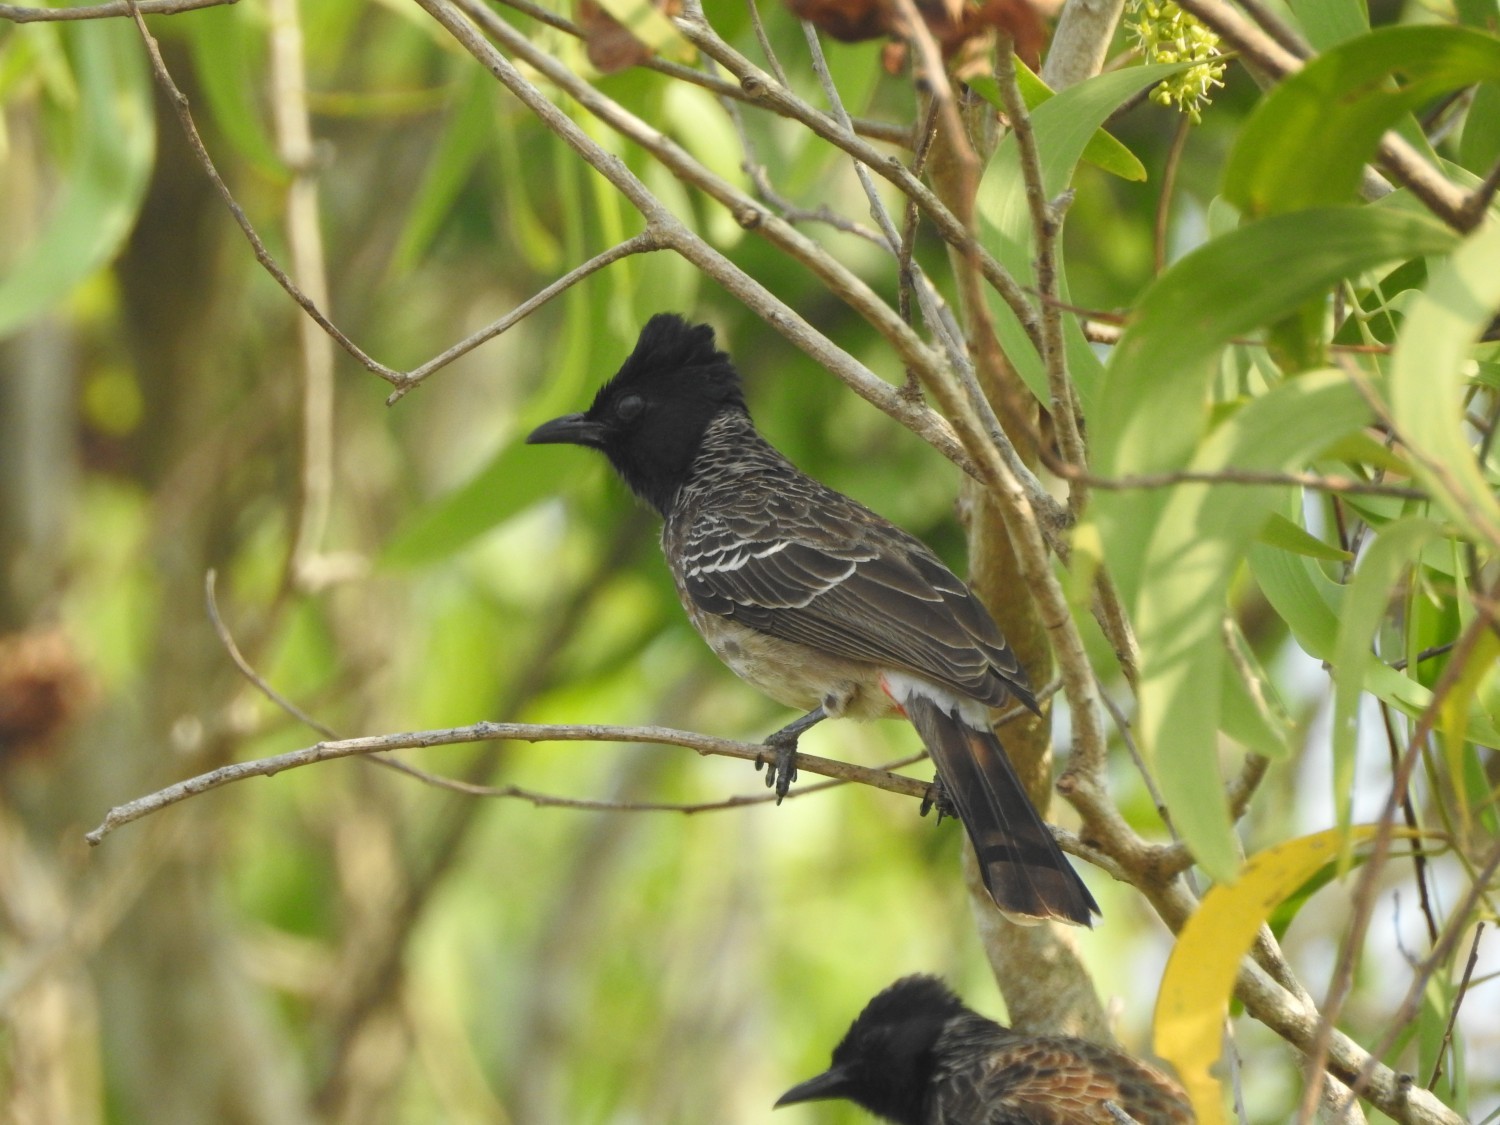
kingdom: Animalia
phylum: Chordata
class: Aves
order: Passeriformes
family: Pycnonotidae
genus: Pycnonotus
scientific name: Pycnonotus cafer
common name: Red-vented bulbul
